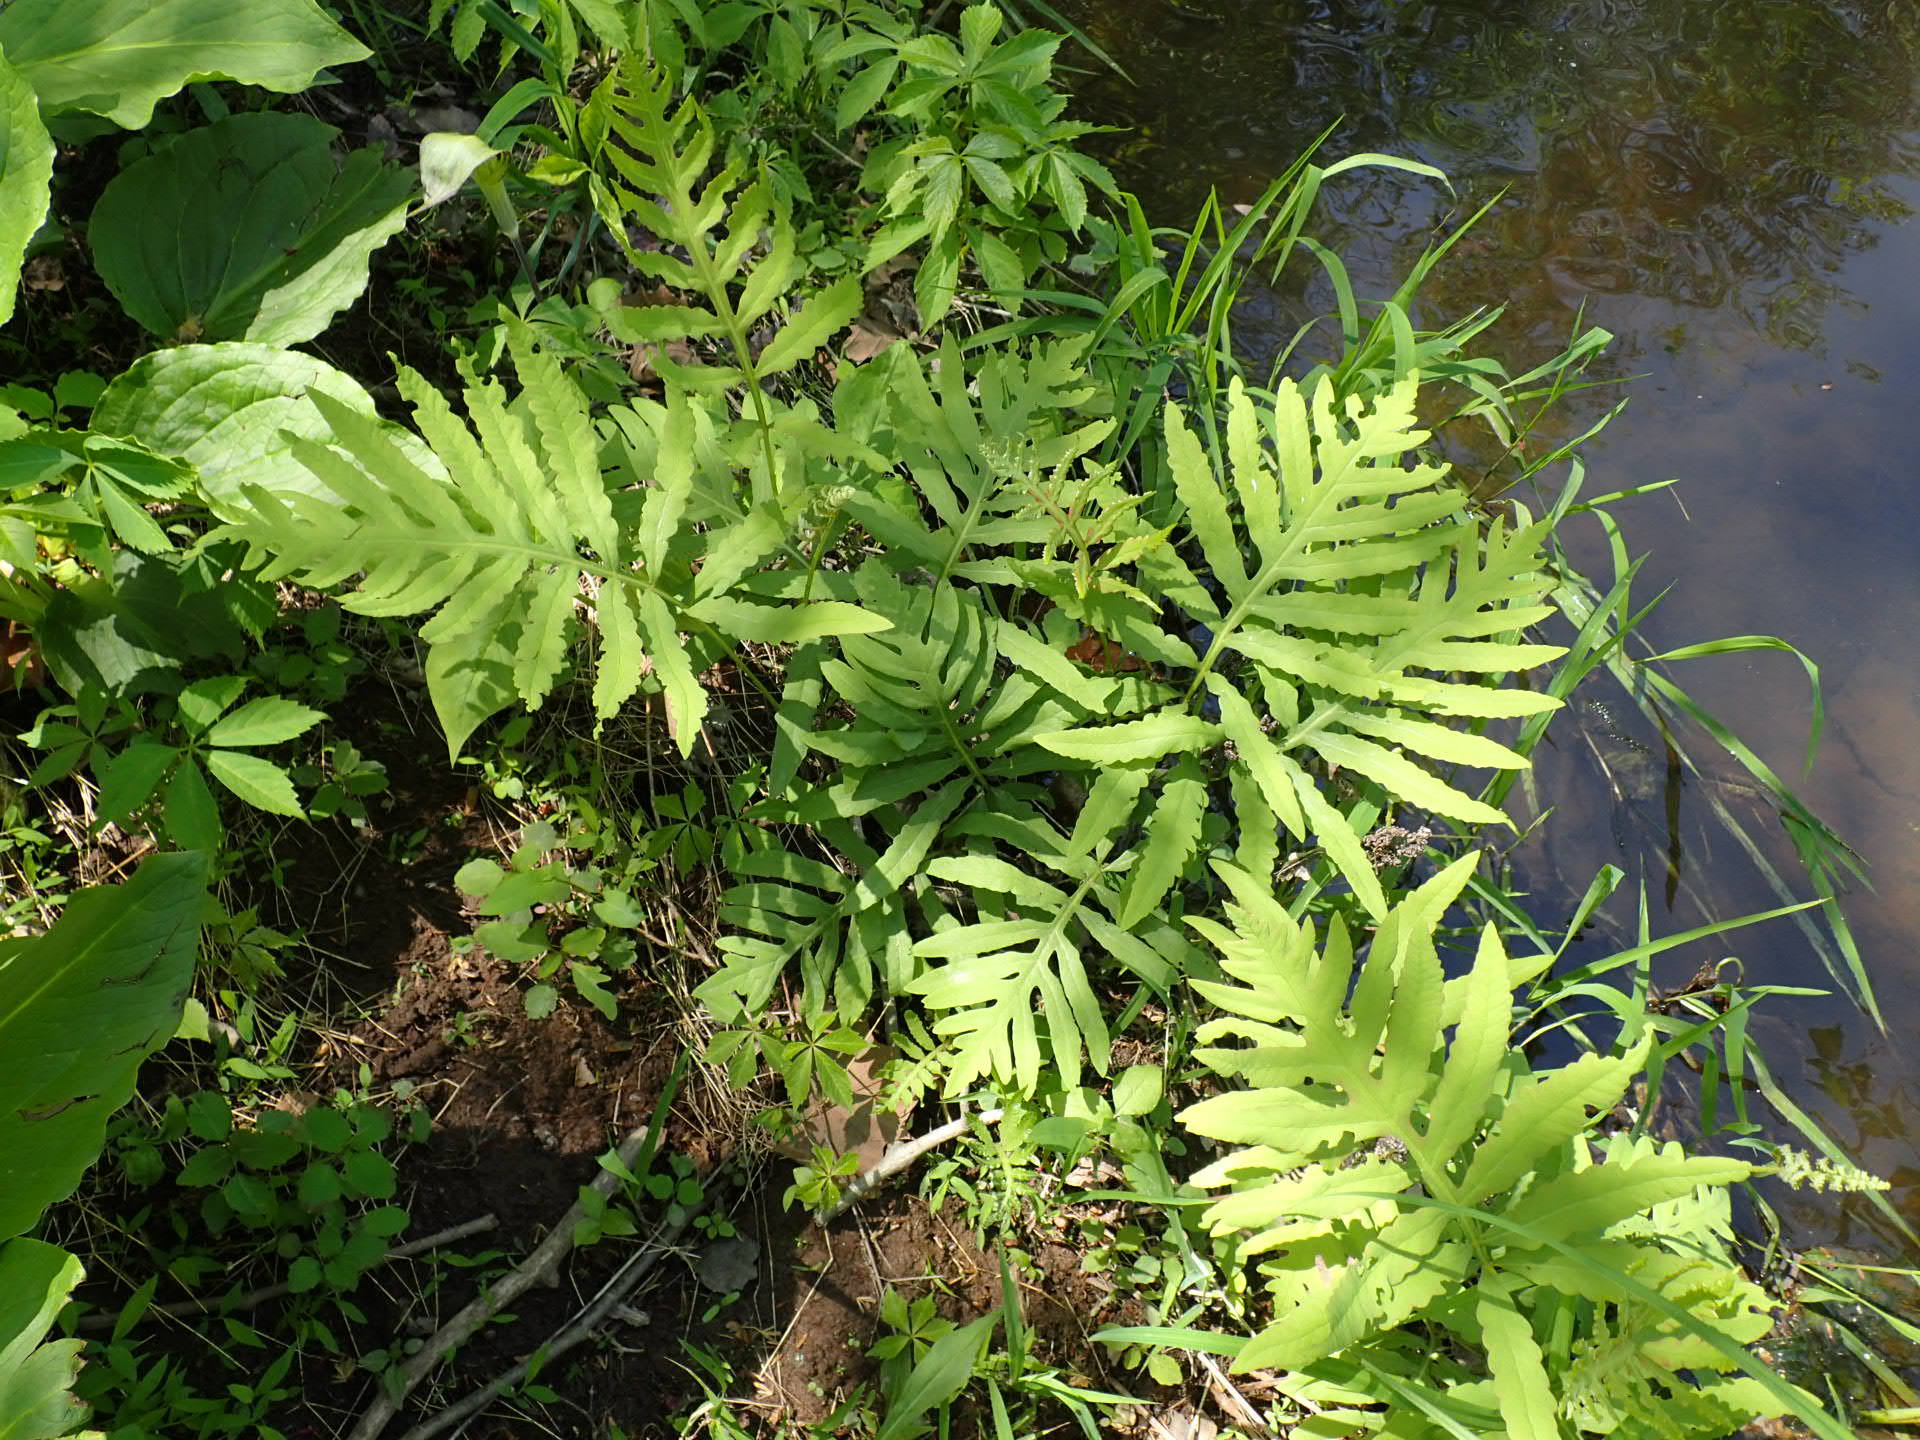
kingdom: Plantae
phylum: Tracheophyta
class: Polypodiopsida
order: Polypodiales
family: Onocleaceae
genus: Onoclea
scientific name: Onoclea sensibilis
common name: Sensitive fern
